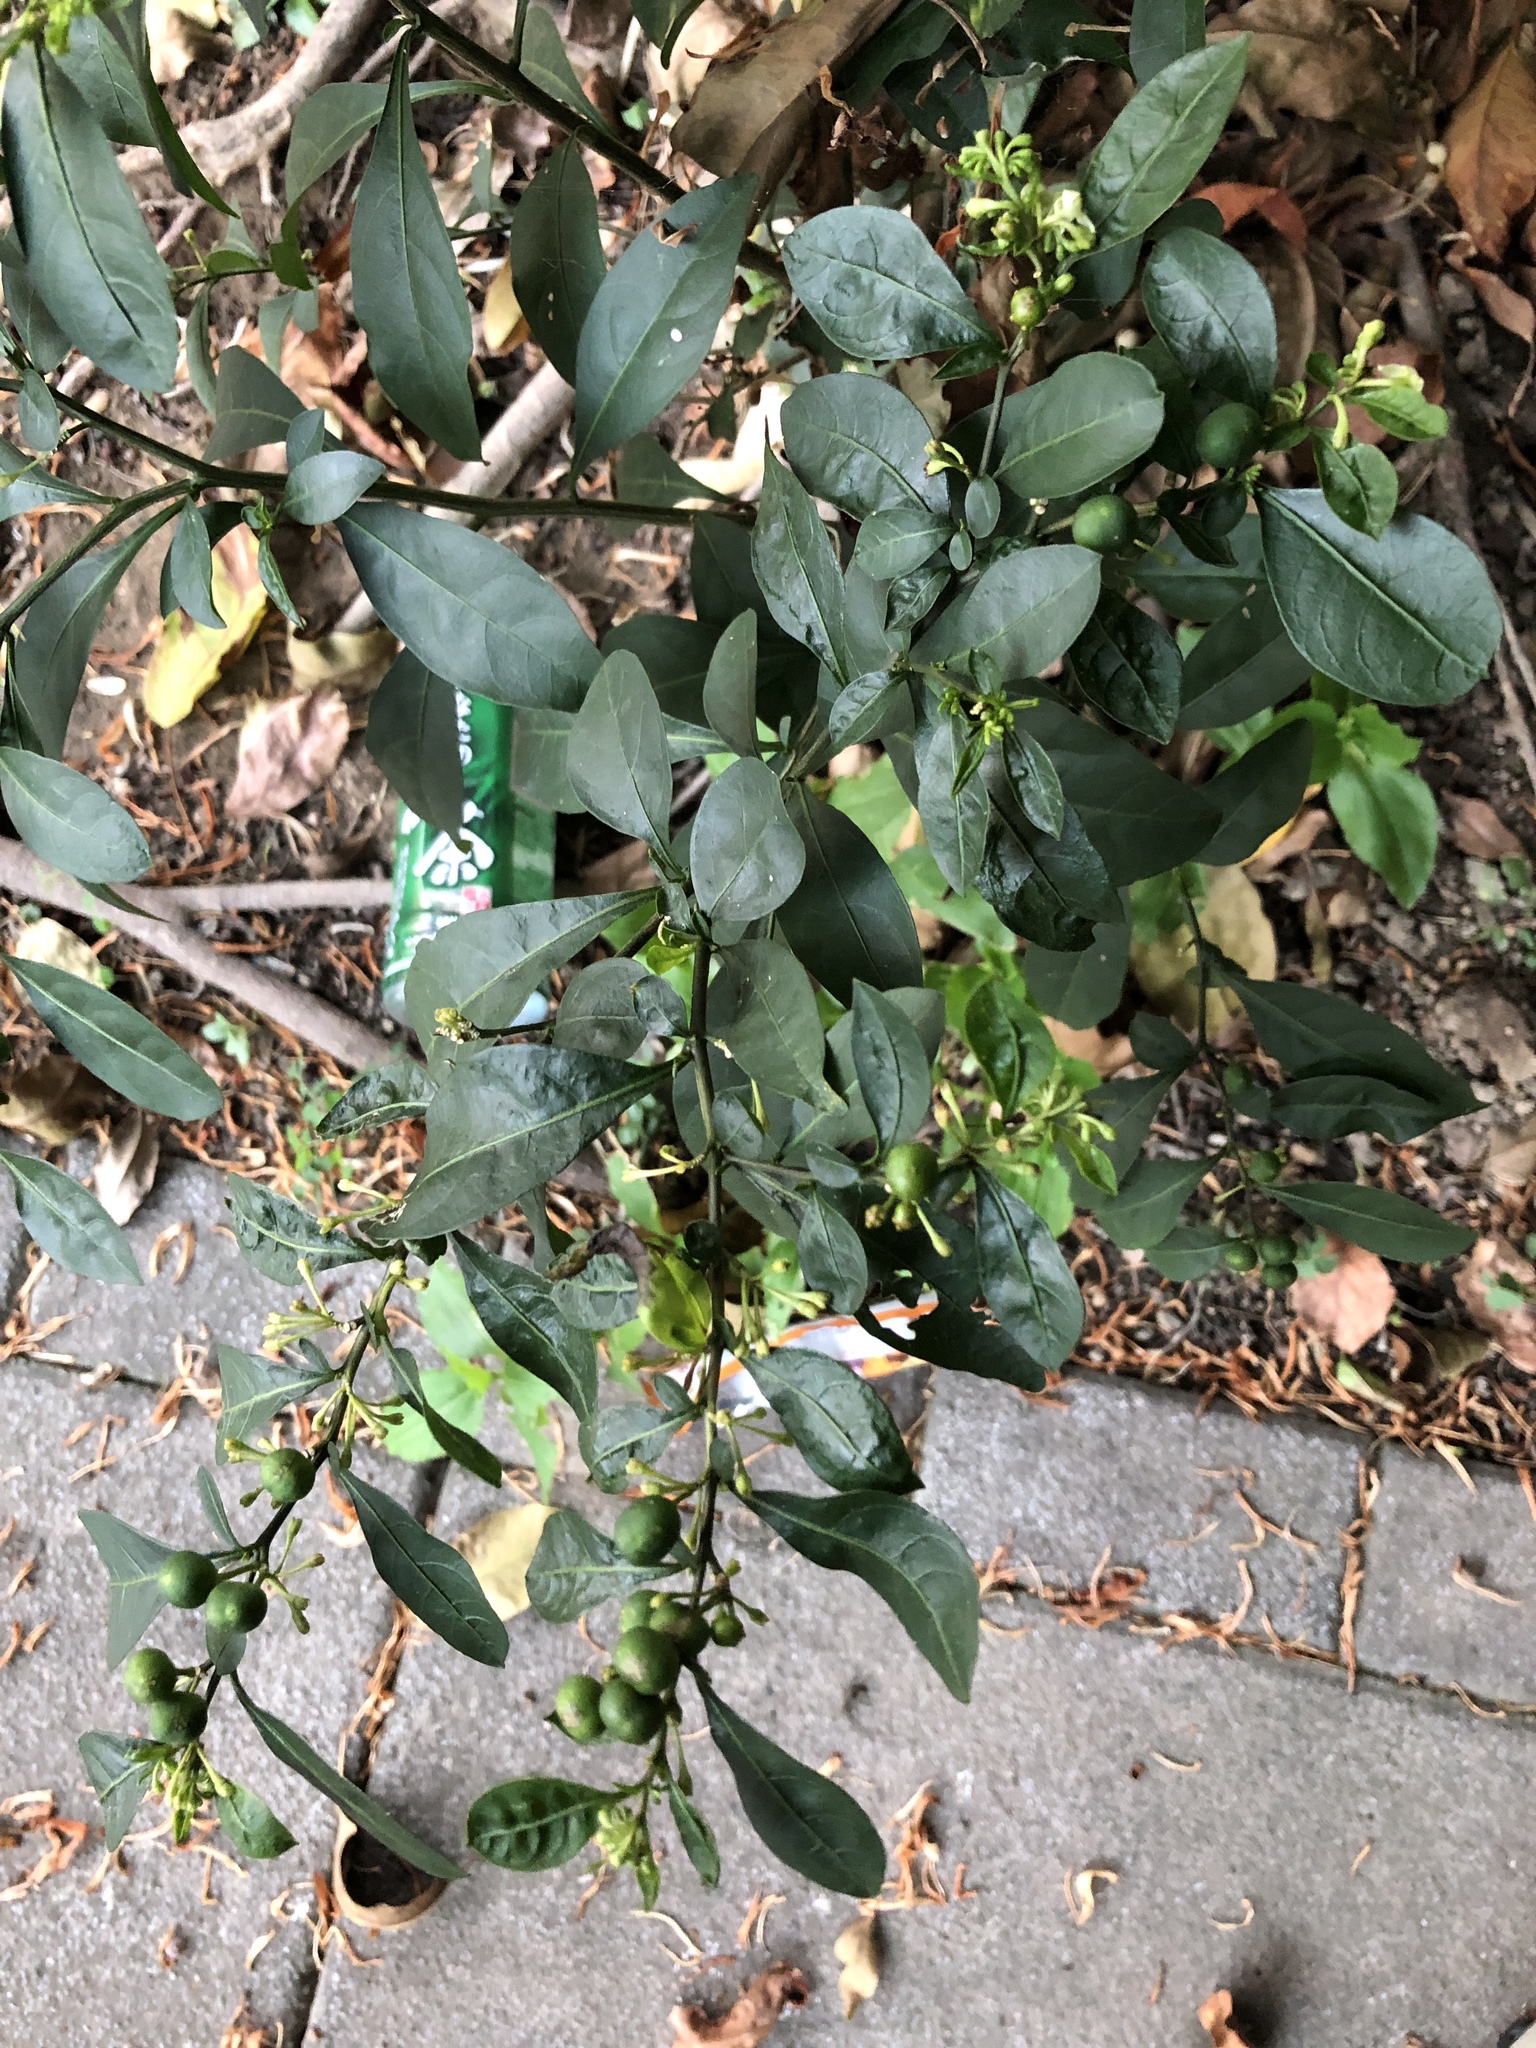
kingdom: Plantae
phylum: Tracheophyta
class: Magnoliopsida
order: Solanales
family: Solanaceae
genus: Solanum
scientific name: Solanum diphyllum
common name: Twoleaf nightshade
